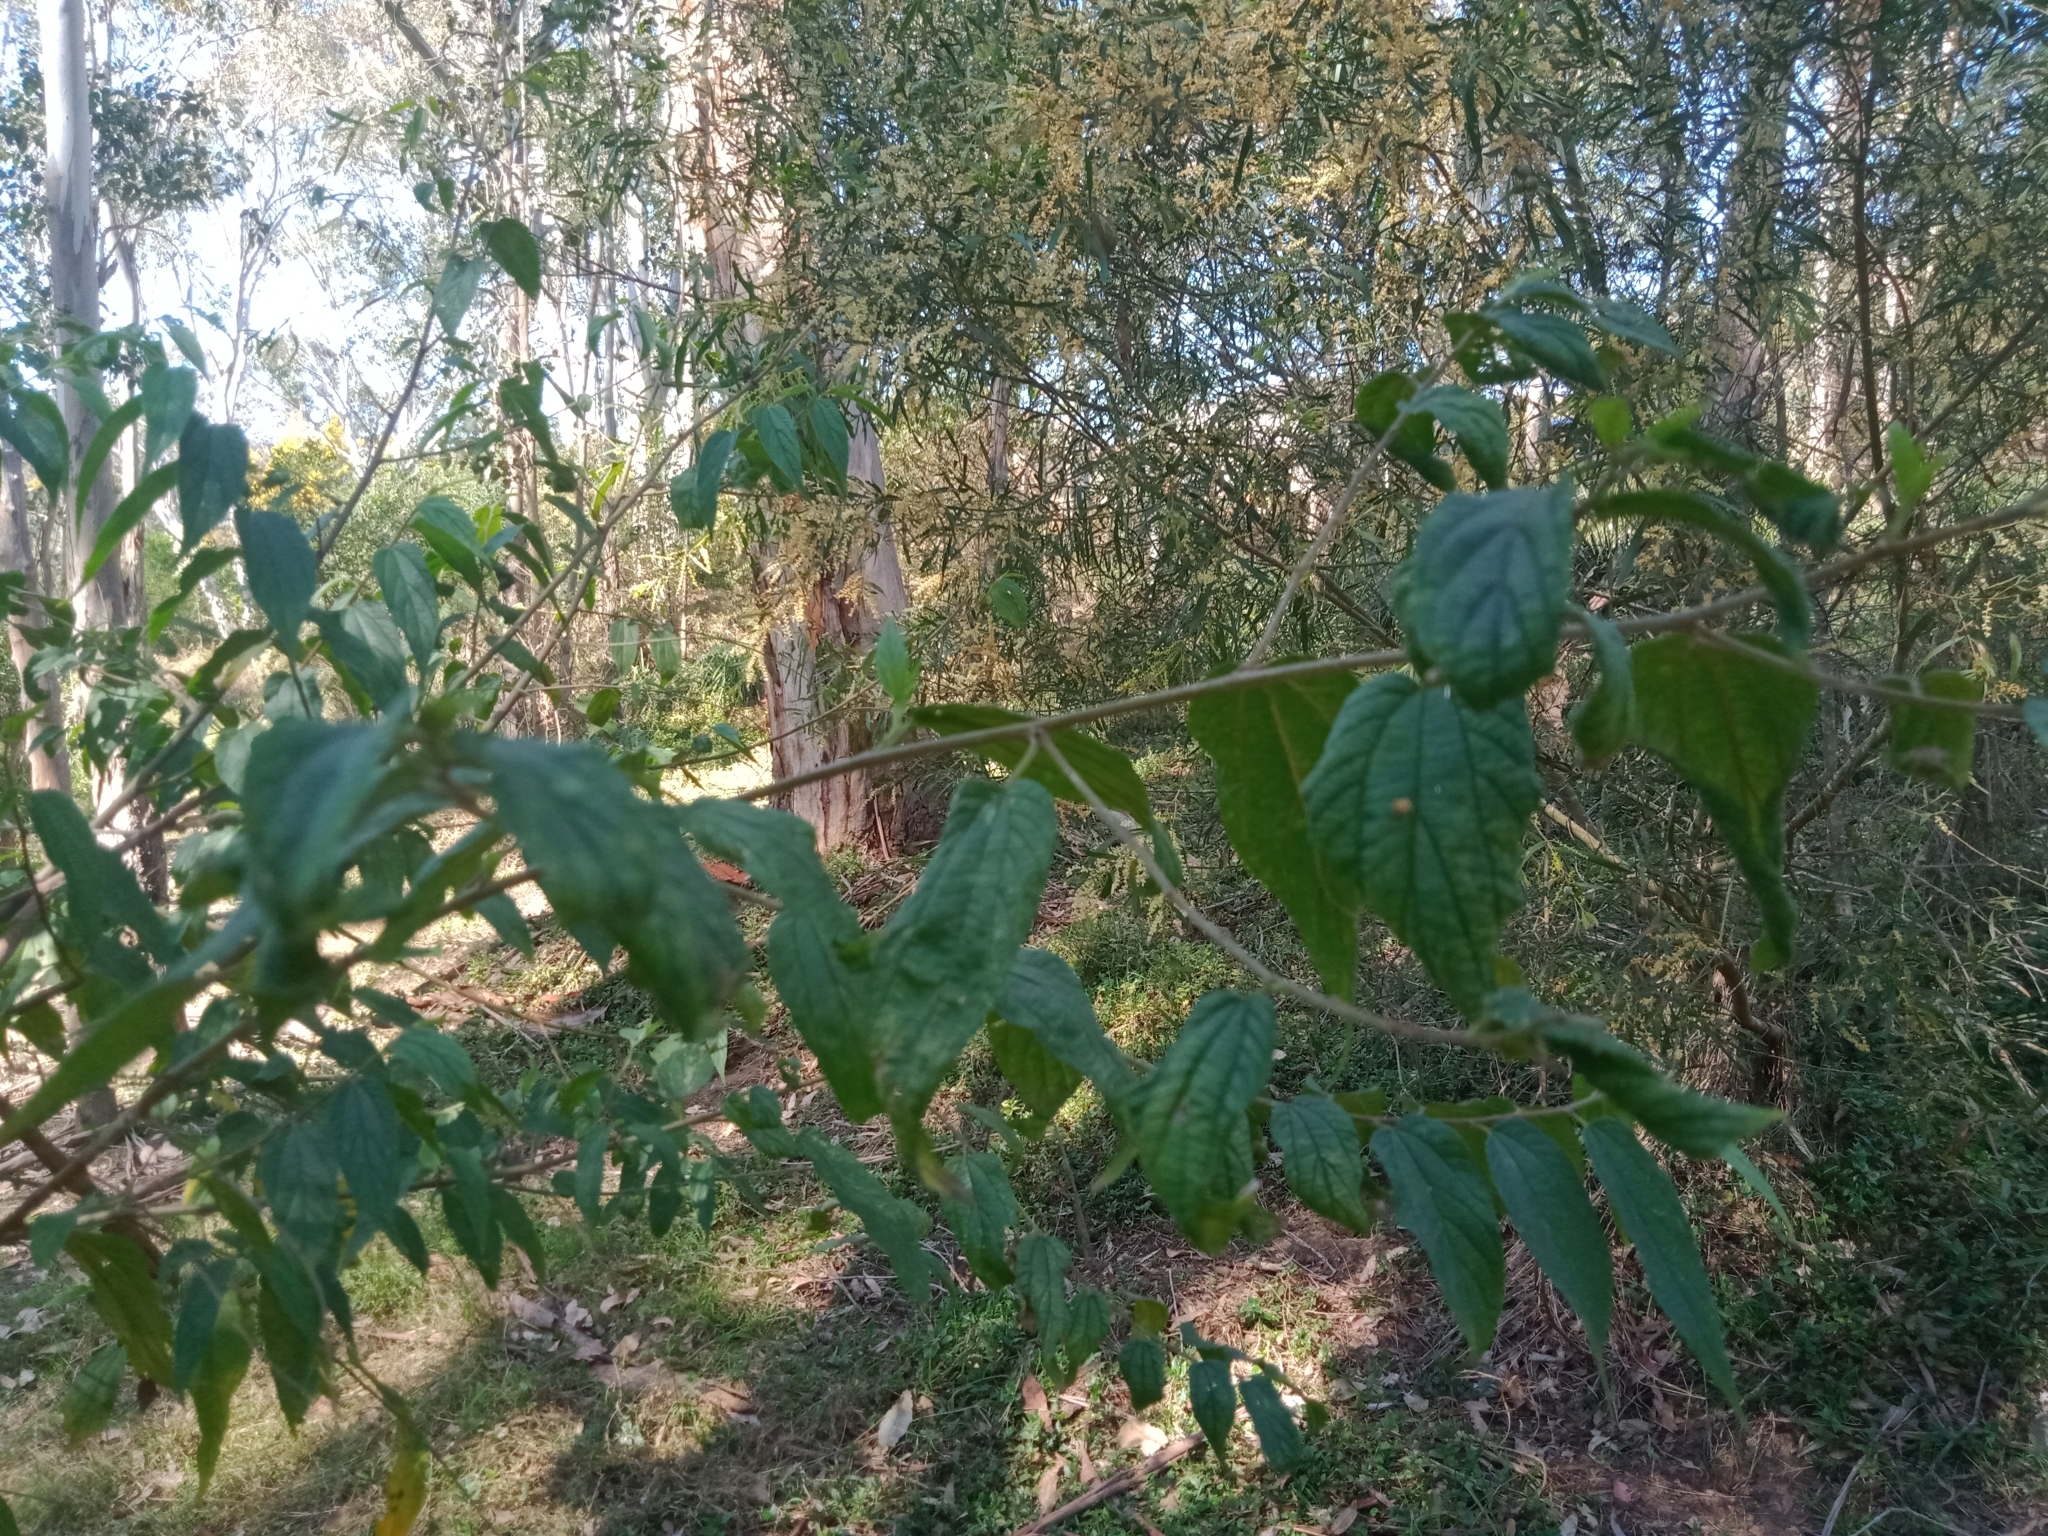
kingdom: Plantae
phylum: Tracheophyta
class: Magnoliopsida
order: Rosales
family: Cannabaceae
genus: Trema
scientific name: Trema tomentosum
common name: Peach-leaf-poisonbush
